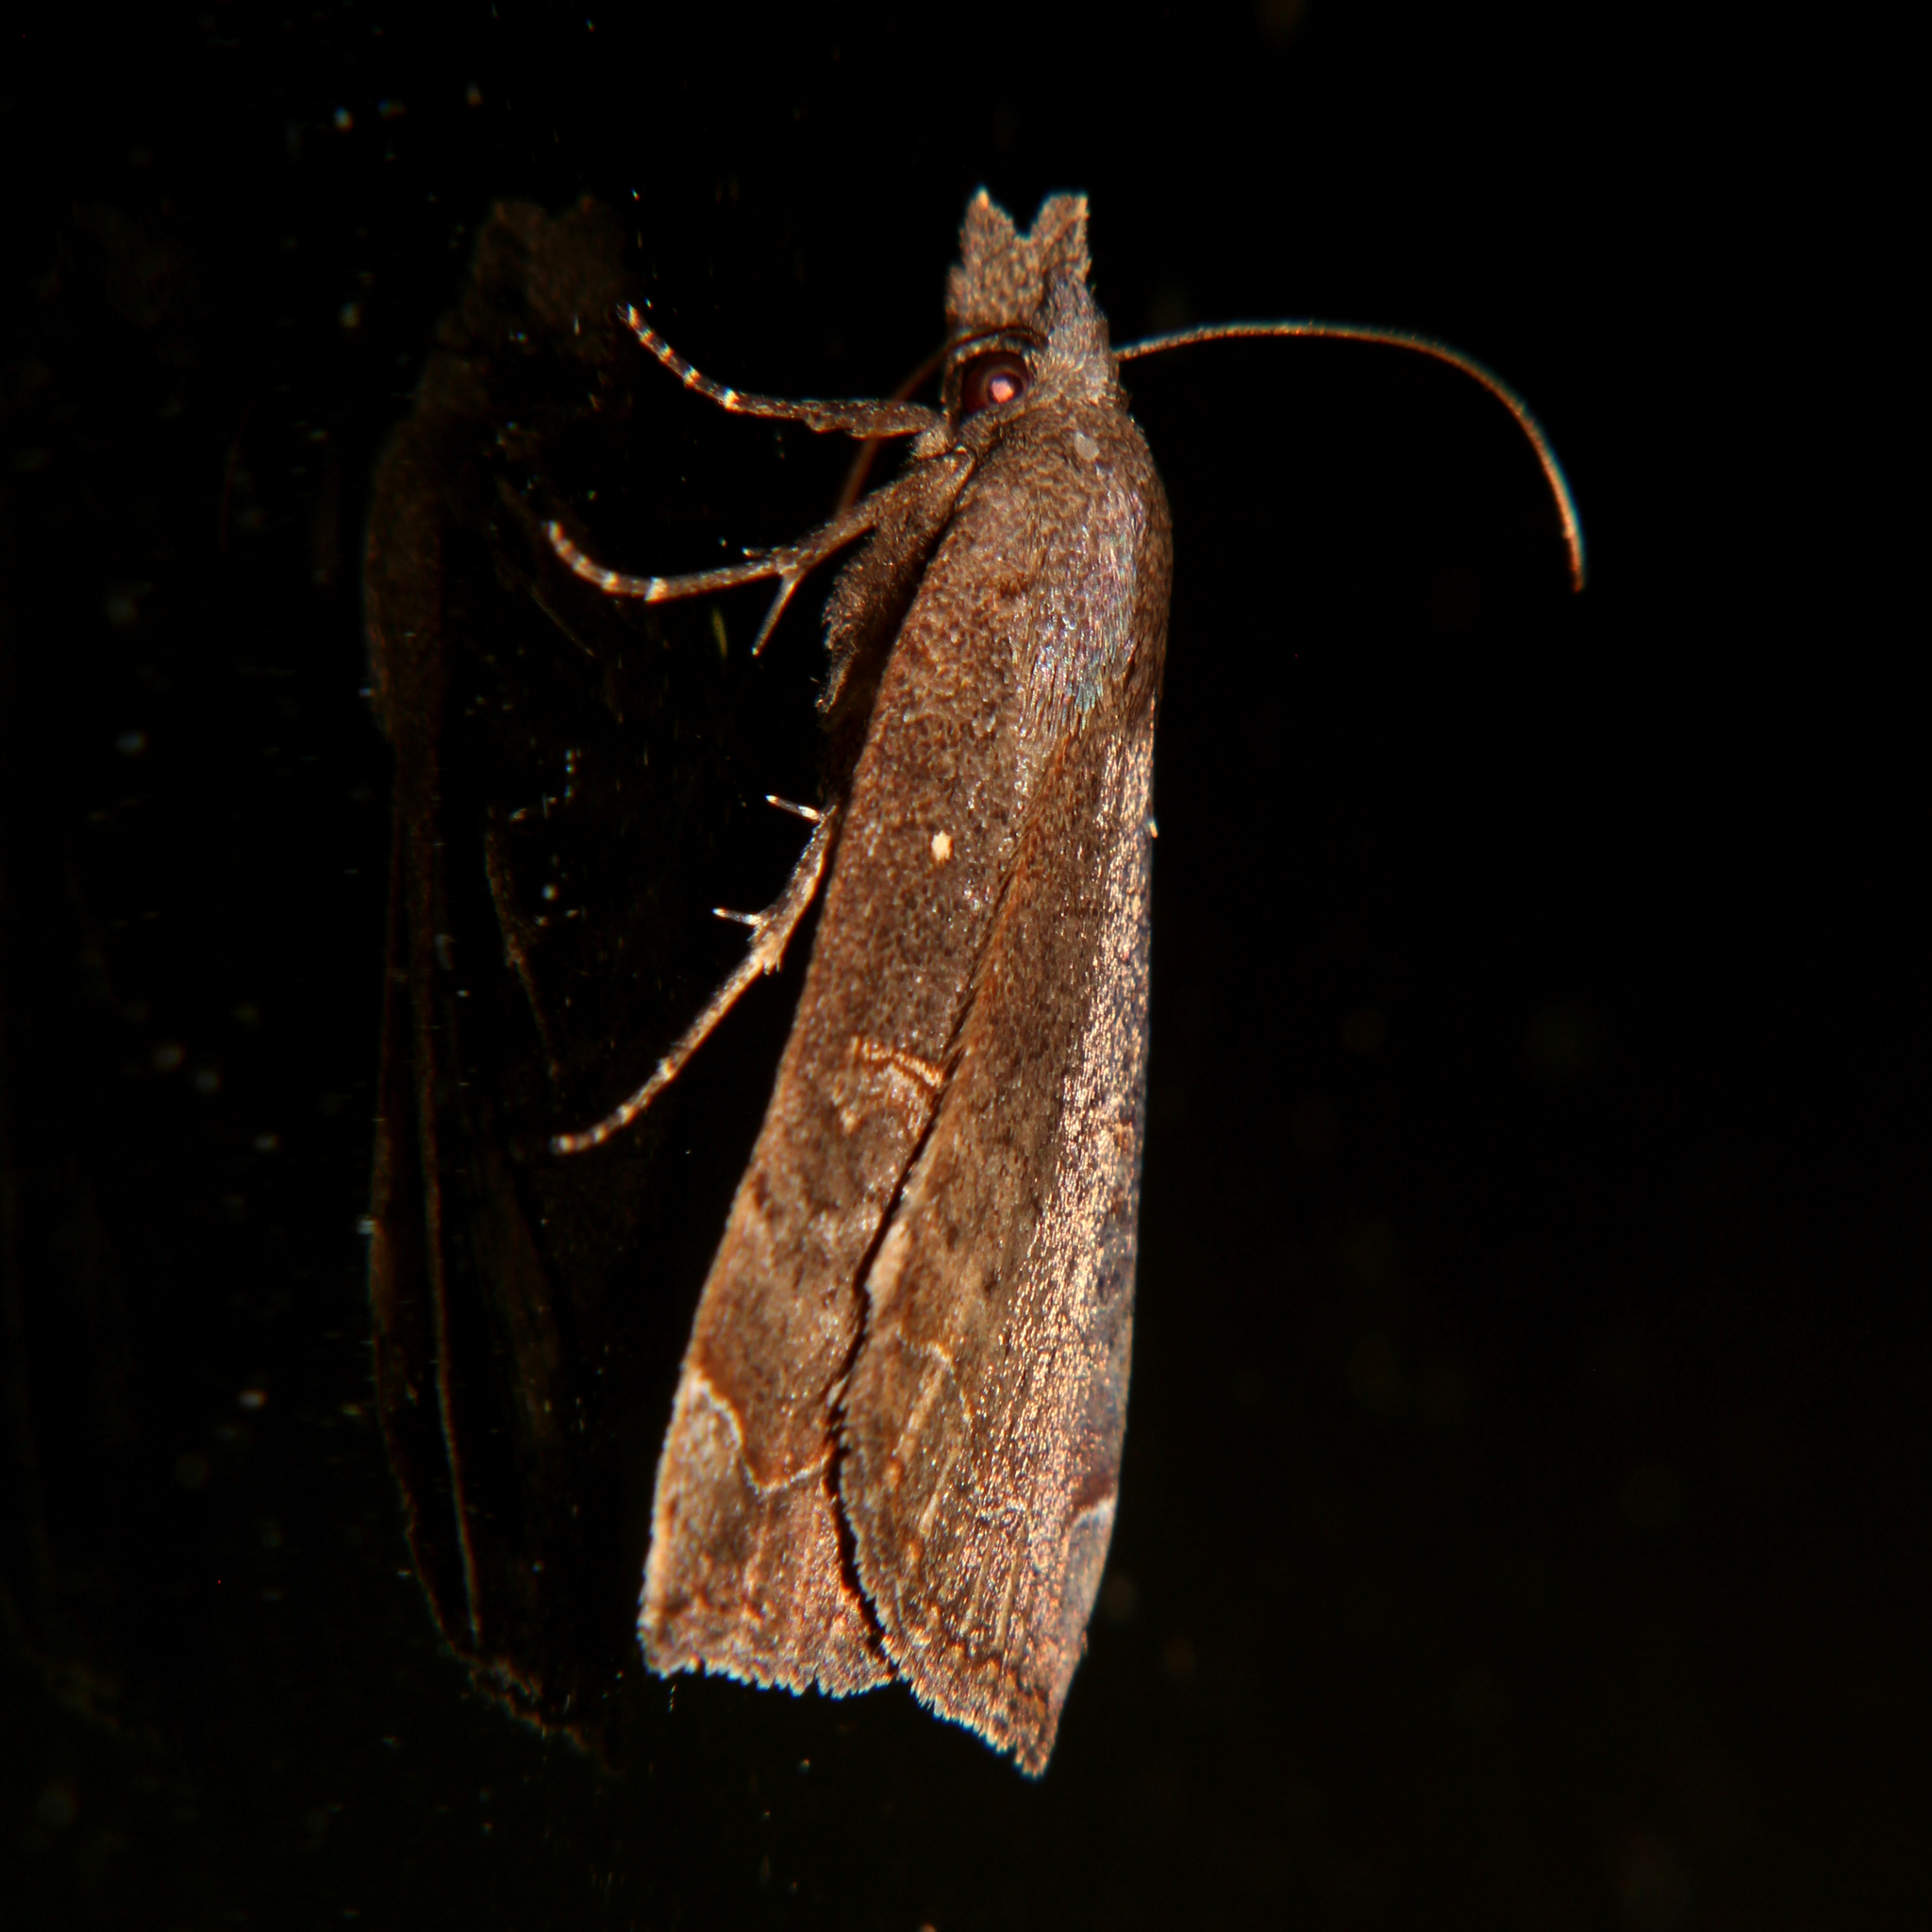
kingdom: Animalia
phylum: Arthropoda
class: Insecta
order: Lepidoptera
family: Erebidae
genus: Rhapsa
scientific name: Rhapsa scotosialis
